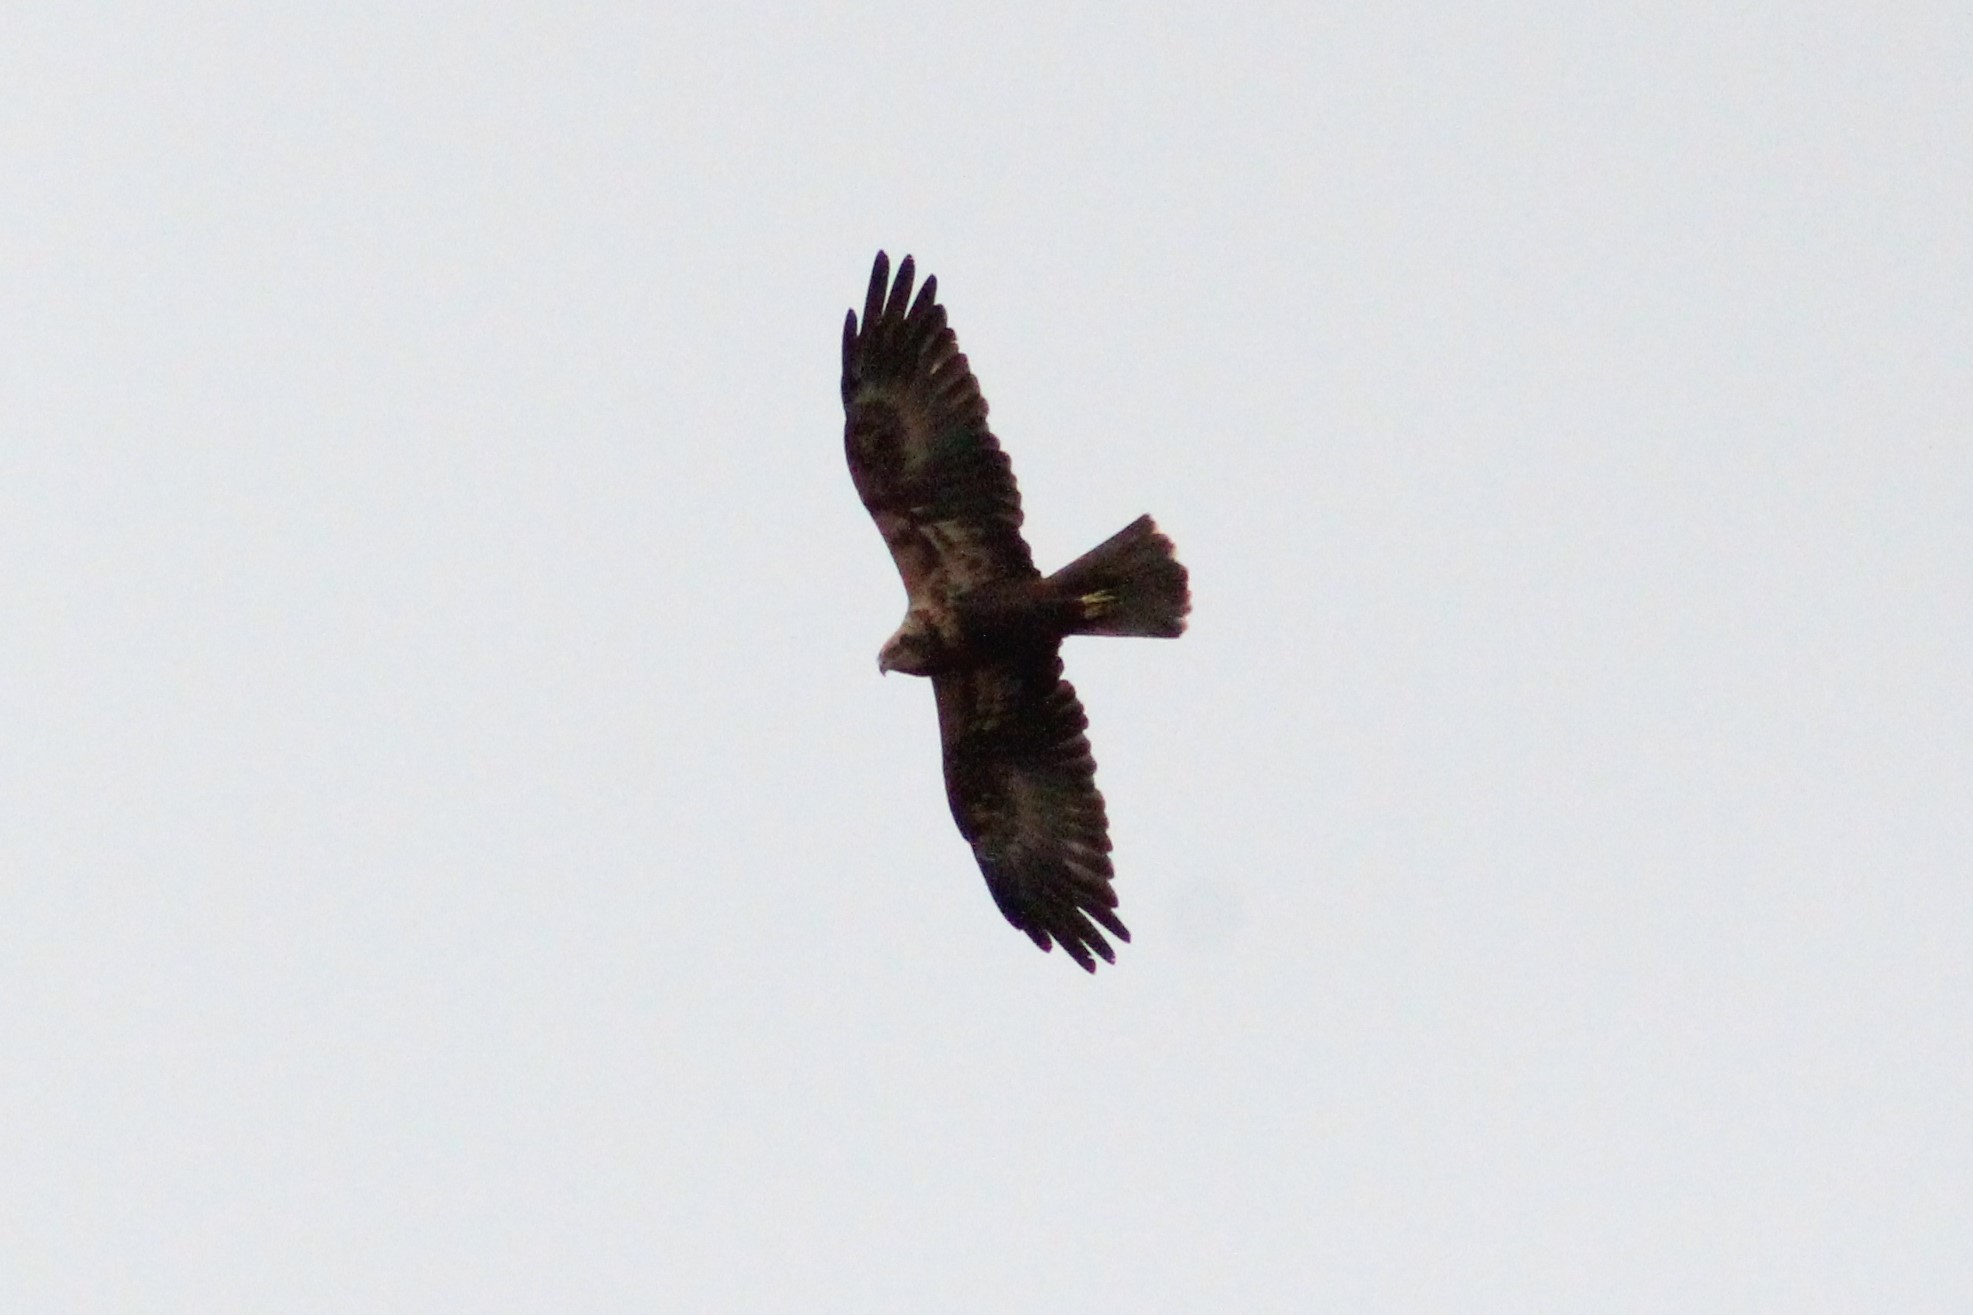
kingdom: Animalia
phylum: Chordata
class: Aves
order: Accipitriformes
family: Accipitridae
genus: Circus
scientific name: Circus aeruginosus
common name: Western marsh harrier
